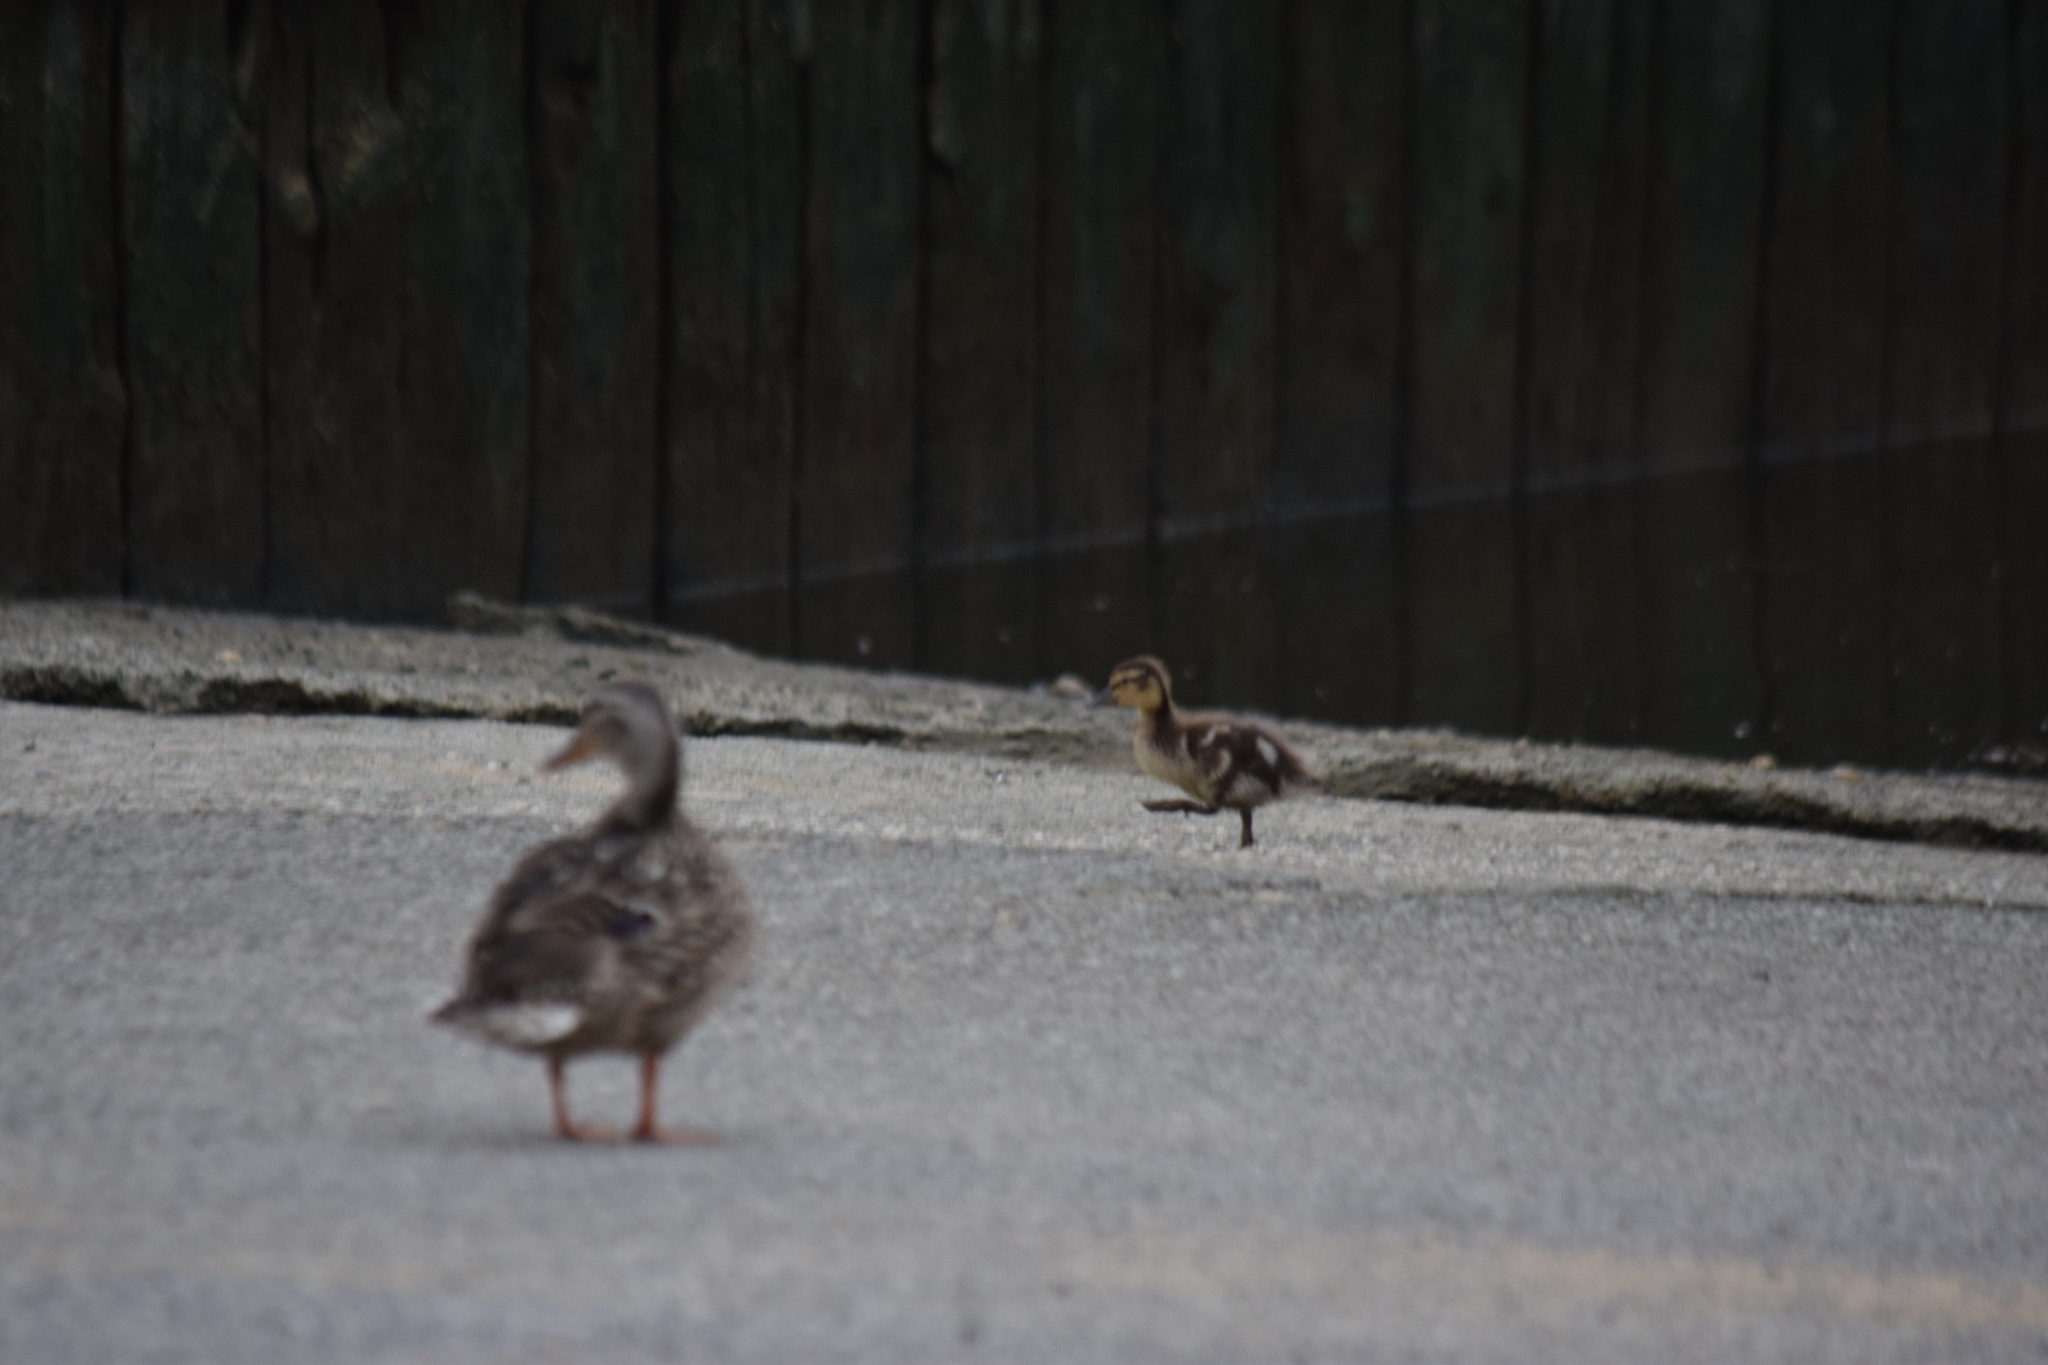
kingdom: Animalia
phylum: Chordata
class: Aves
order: Anseriformes
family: Anatidae
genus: Anas
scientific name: Anas platyrhynchos
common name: Mallard
